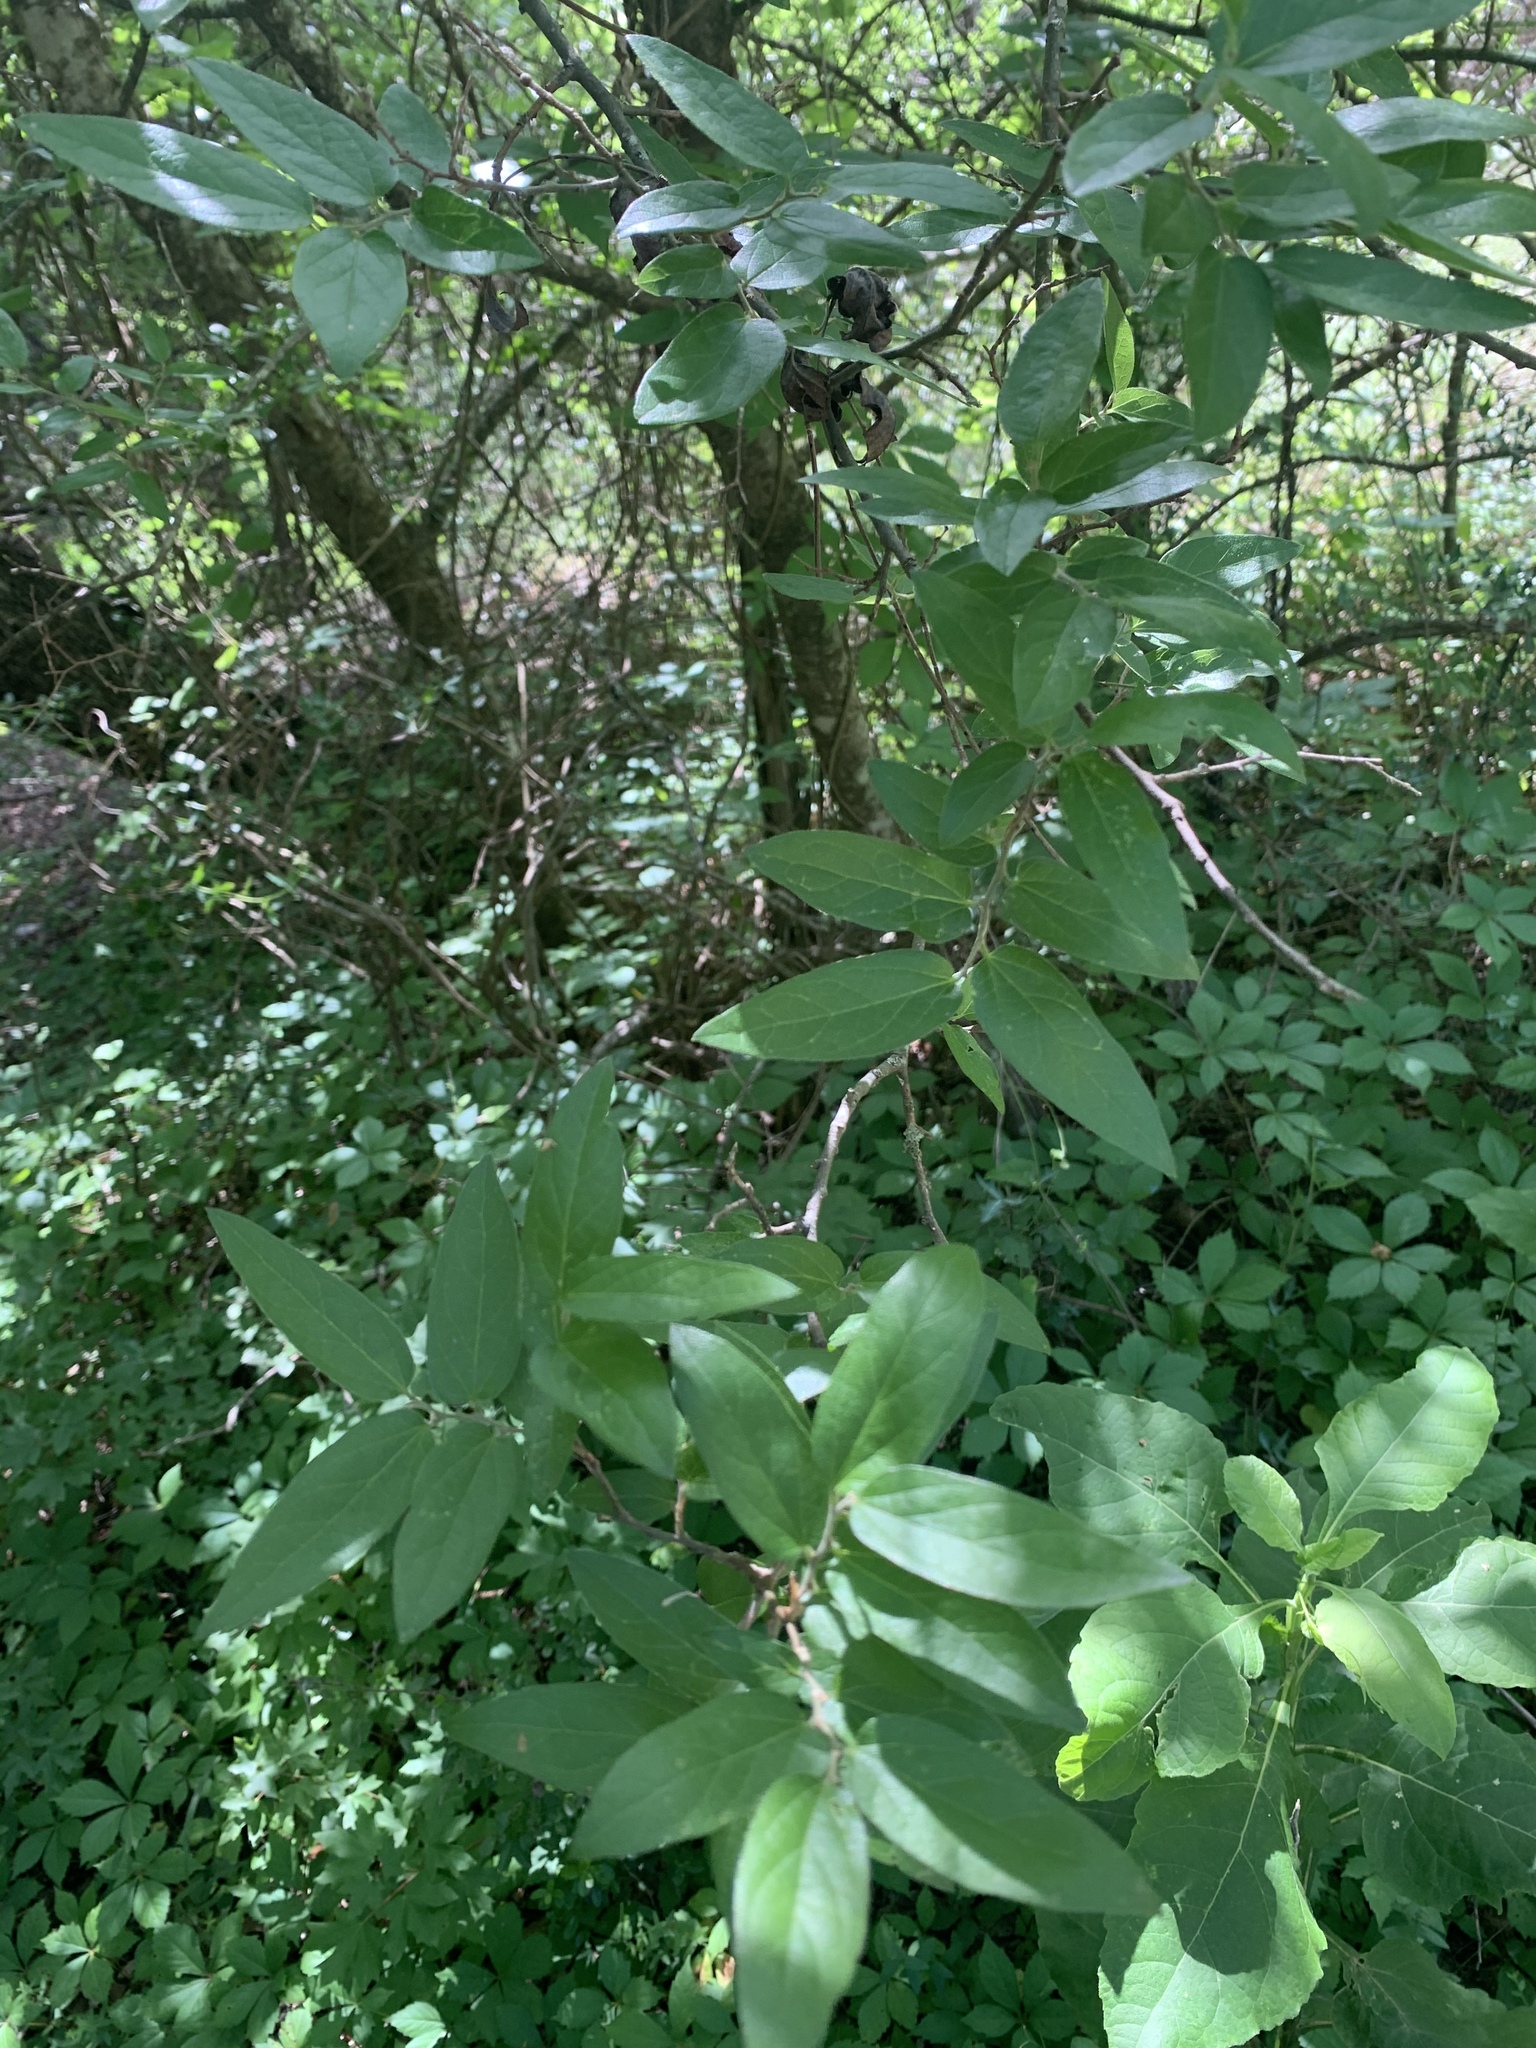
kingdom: Plantae
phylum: Tracheophyta
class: Magnoliopsida
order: Rosales
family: Cannabaceae
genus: Celtis
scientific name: Celtis laevigata
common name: Sugarberry
